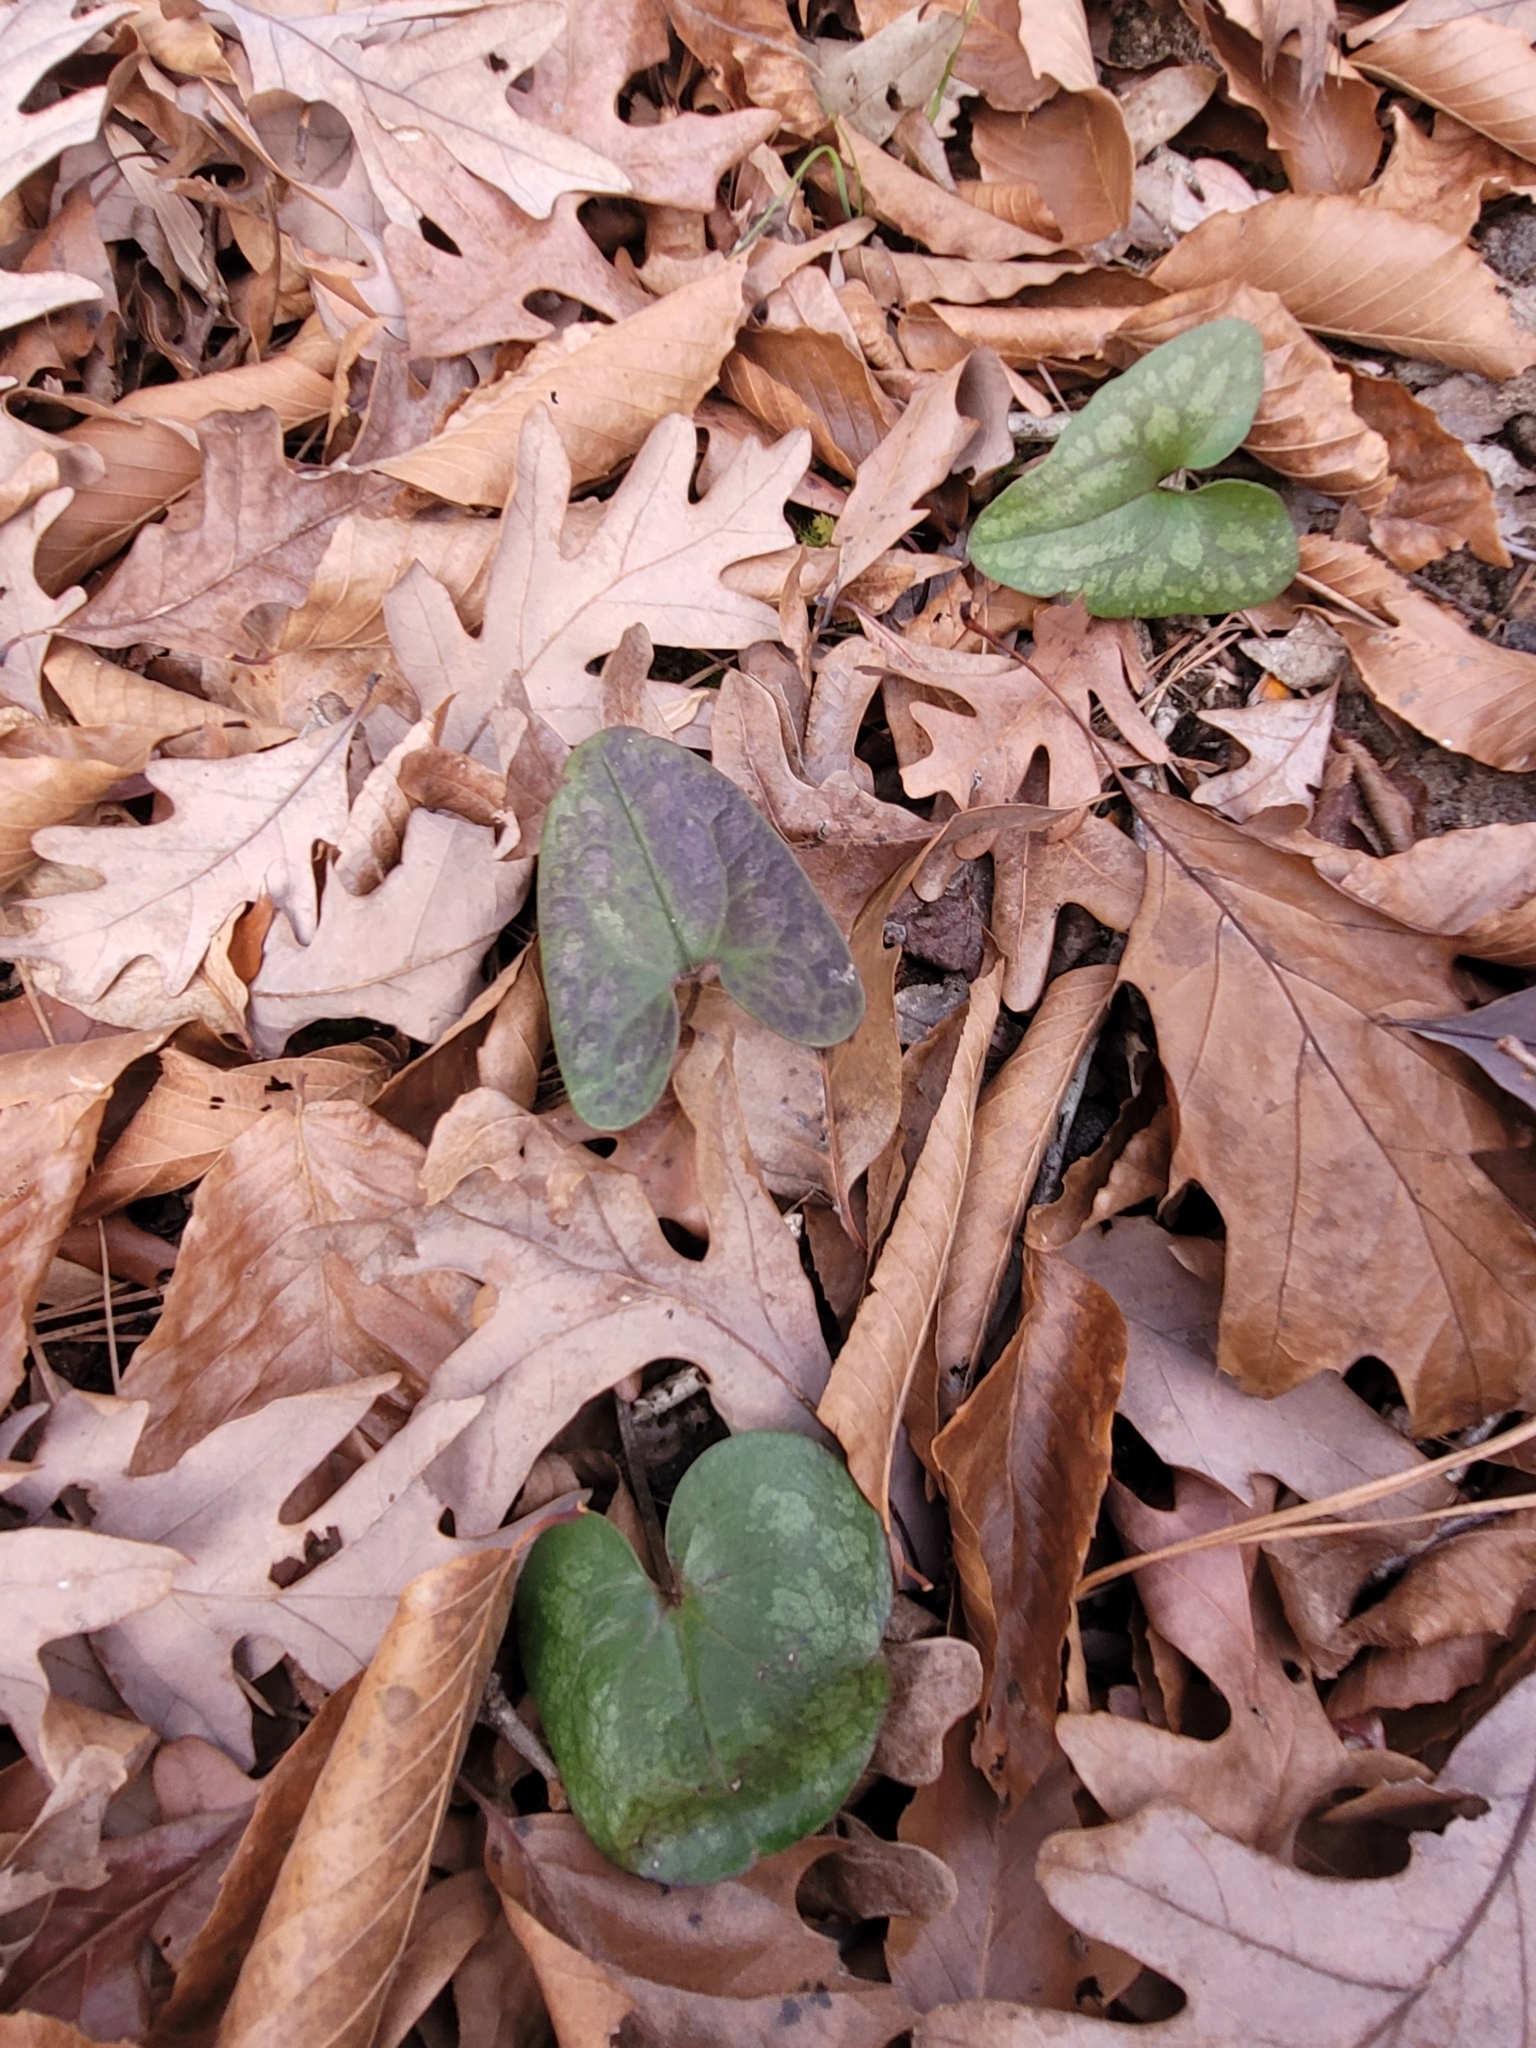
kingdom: Plantae
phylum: Tracheophyta
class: Magnoliopsida
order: Piperales
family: Aristolochiaceae
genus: Hexastylis
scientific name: Hexastylis arifolia
